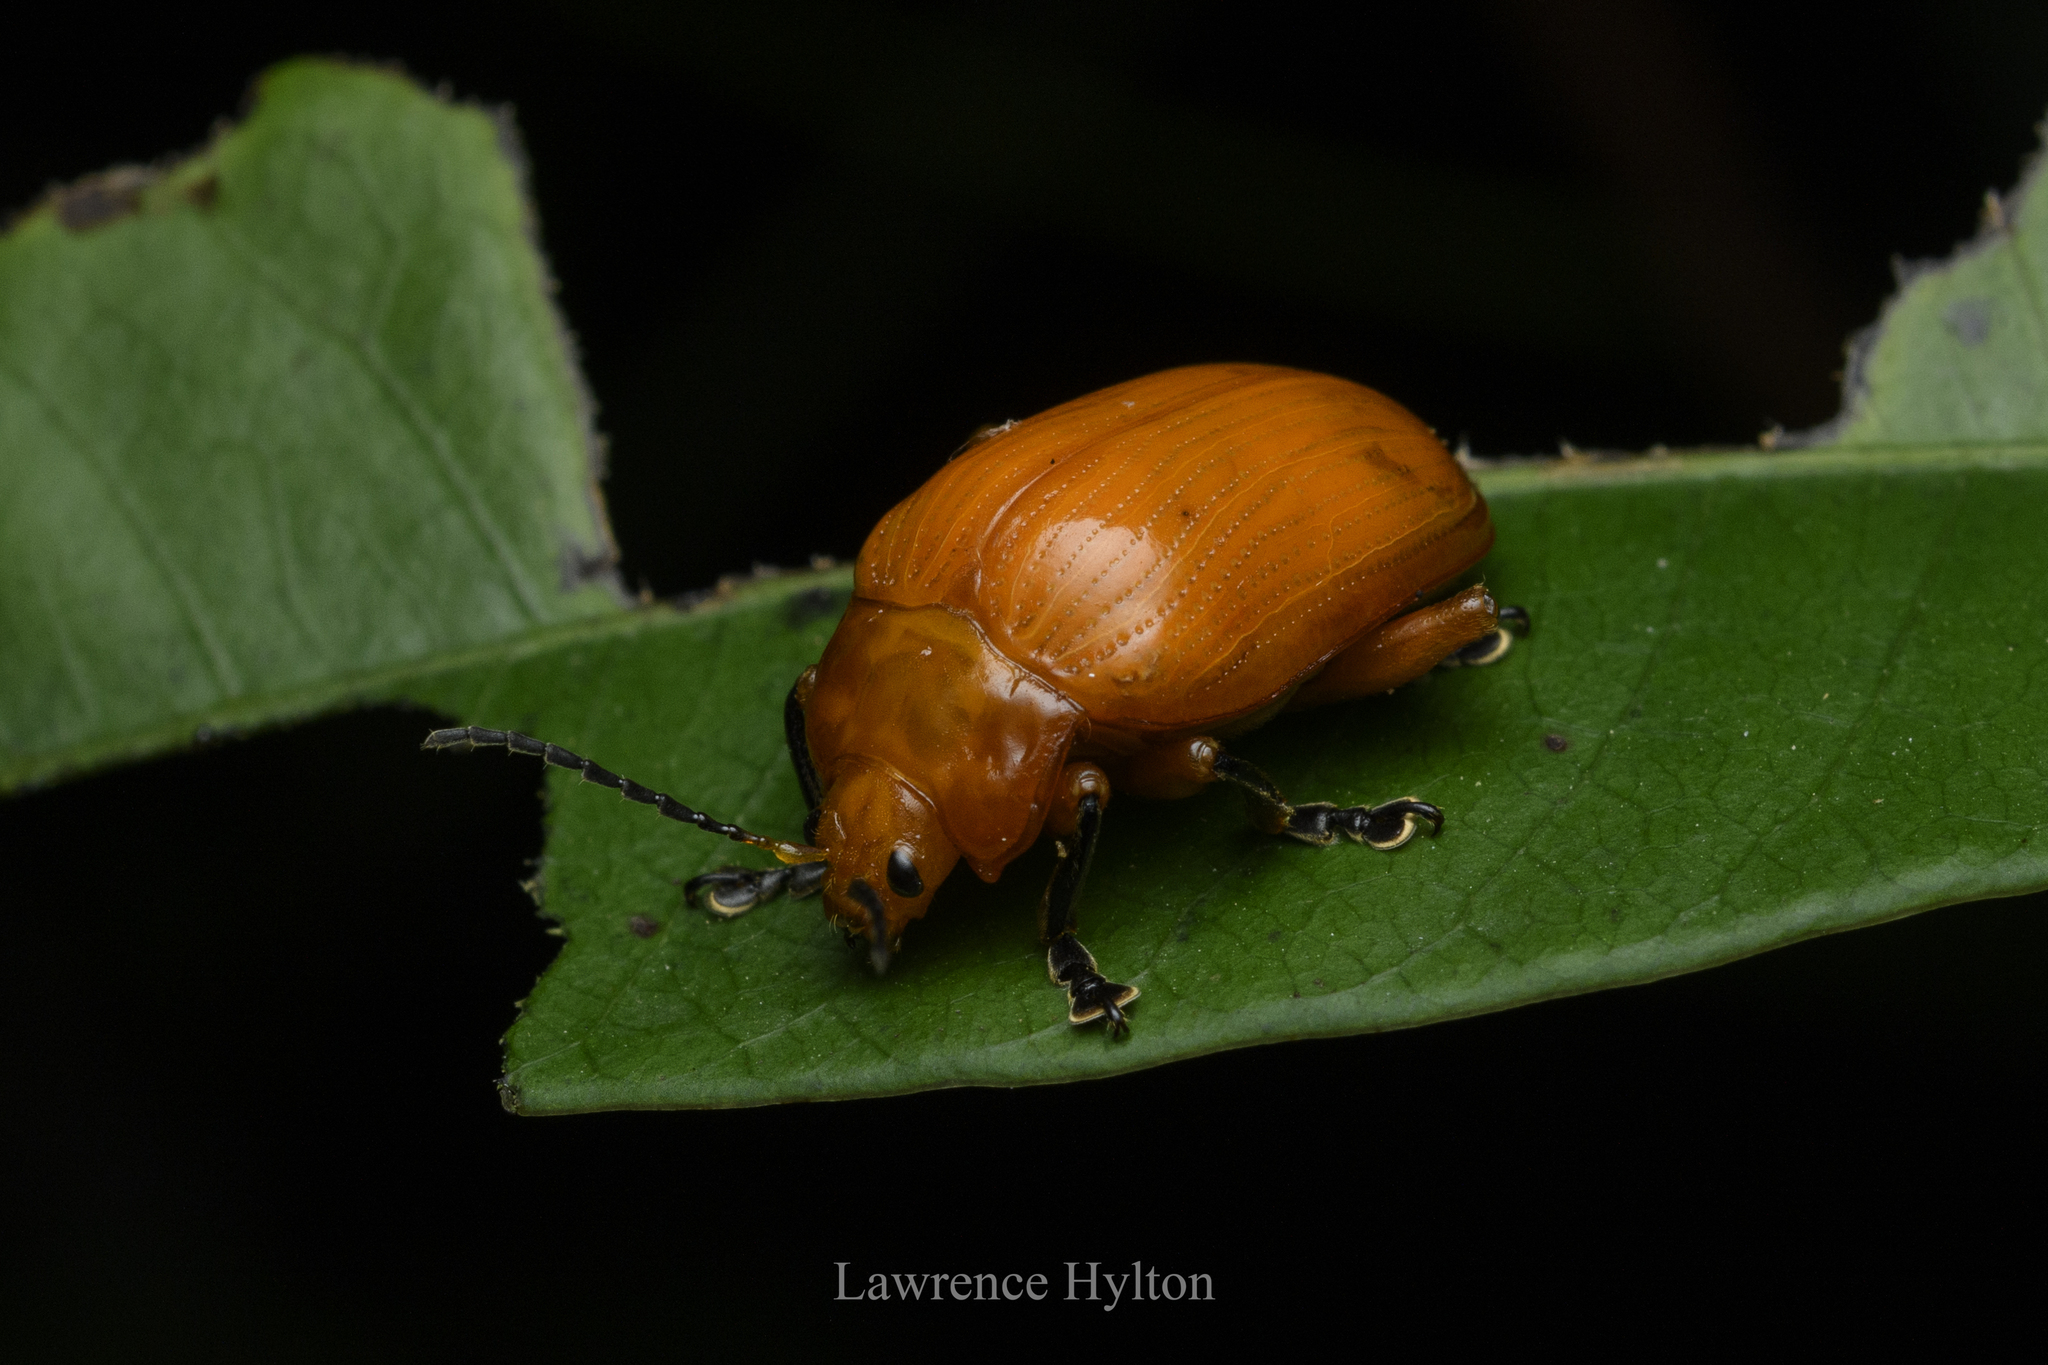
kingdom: Animalia
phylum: Arthropoda
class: Insecta
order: Coleoptera
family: Chrysomelidae
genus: Podontia
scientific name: Podontia lutea
